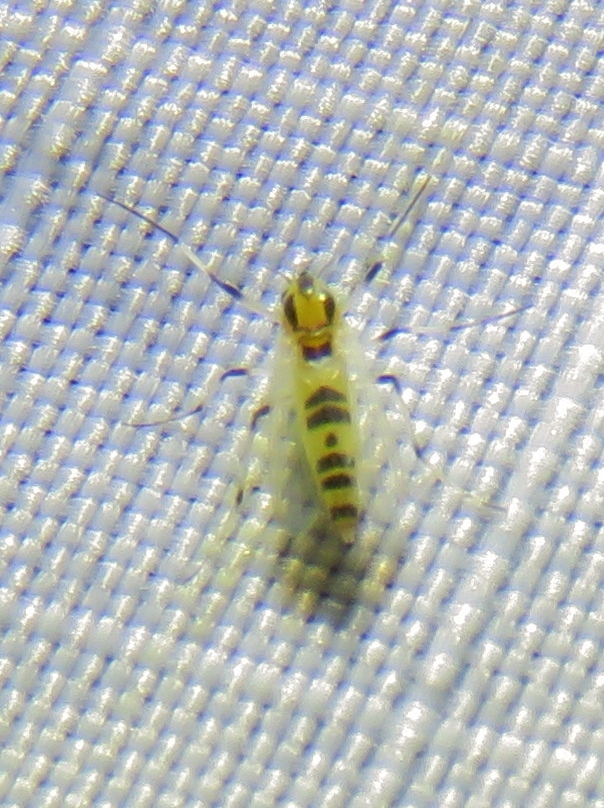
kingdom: Animalia
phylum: Arthropoda
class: Insecta
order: Diptera
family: Chironomidae
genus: Cricotopus
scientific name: Cricotopus sylvestris
